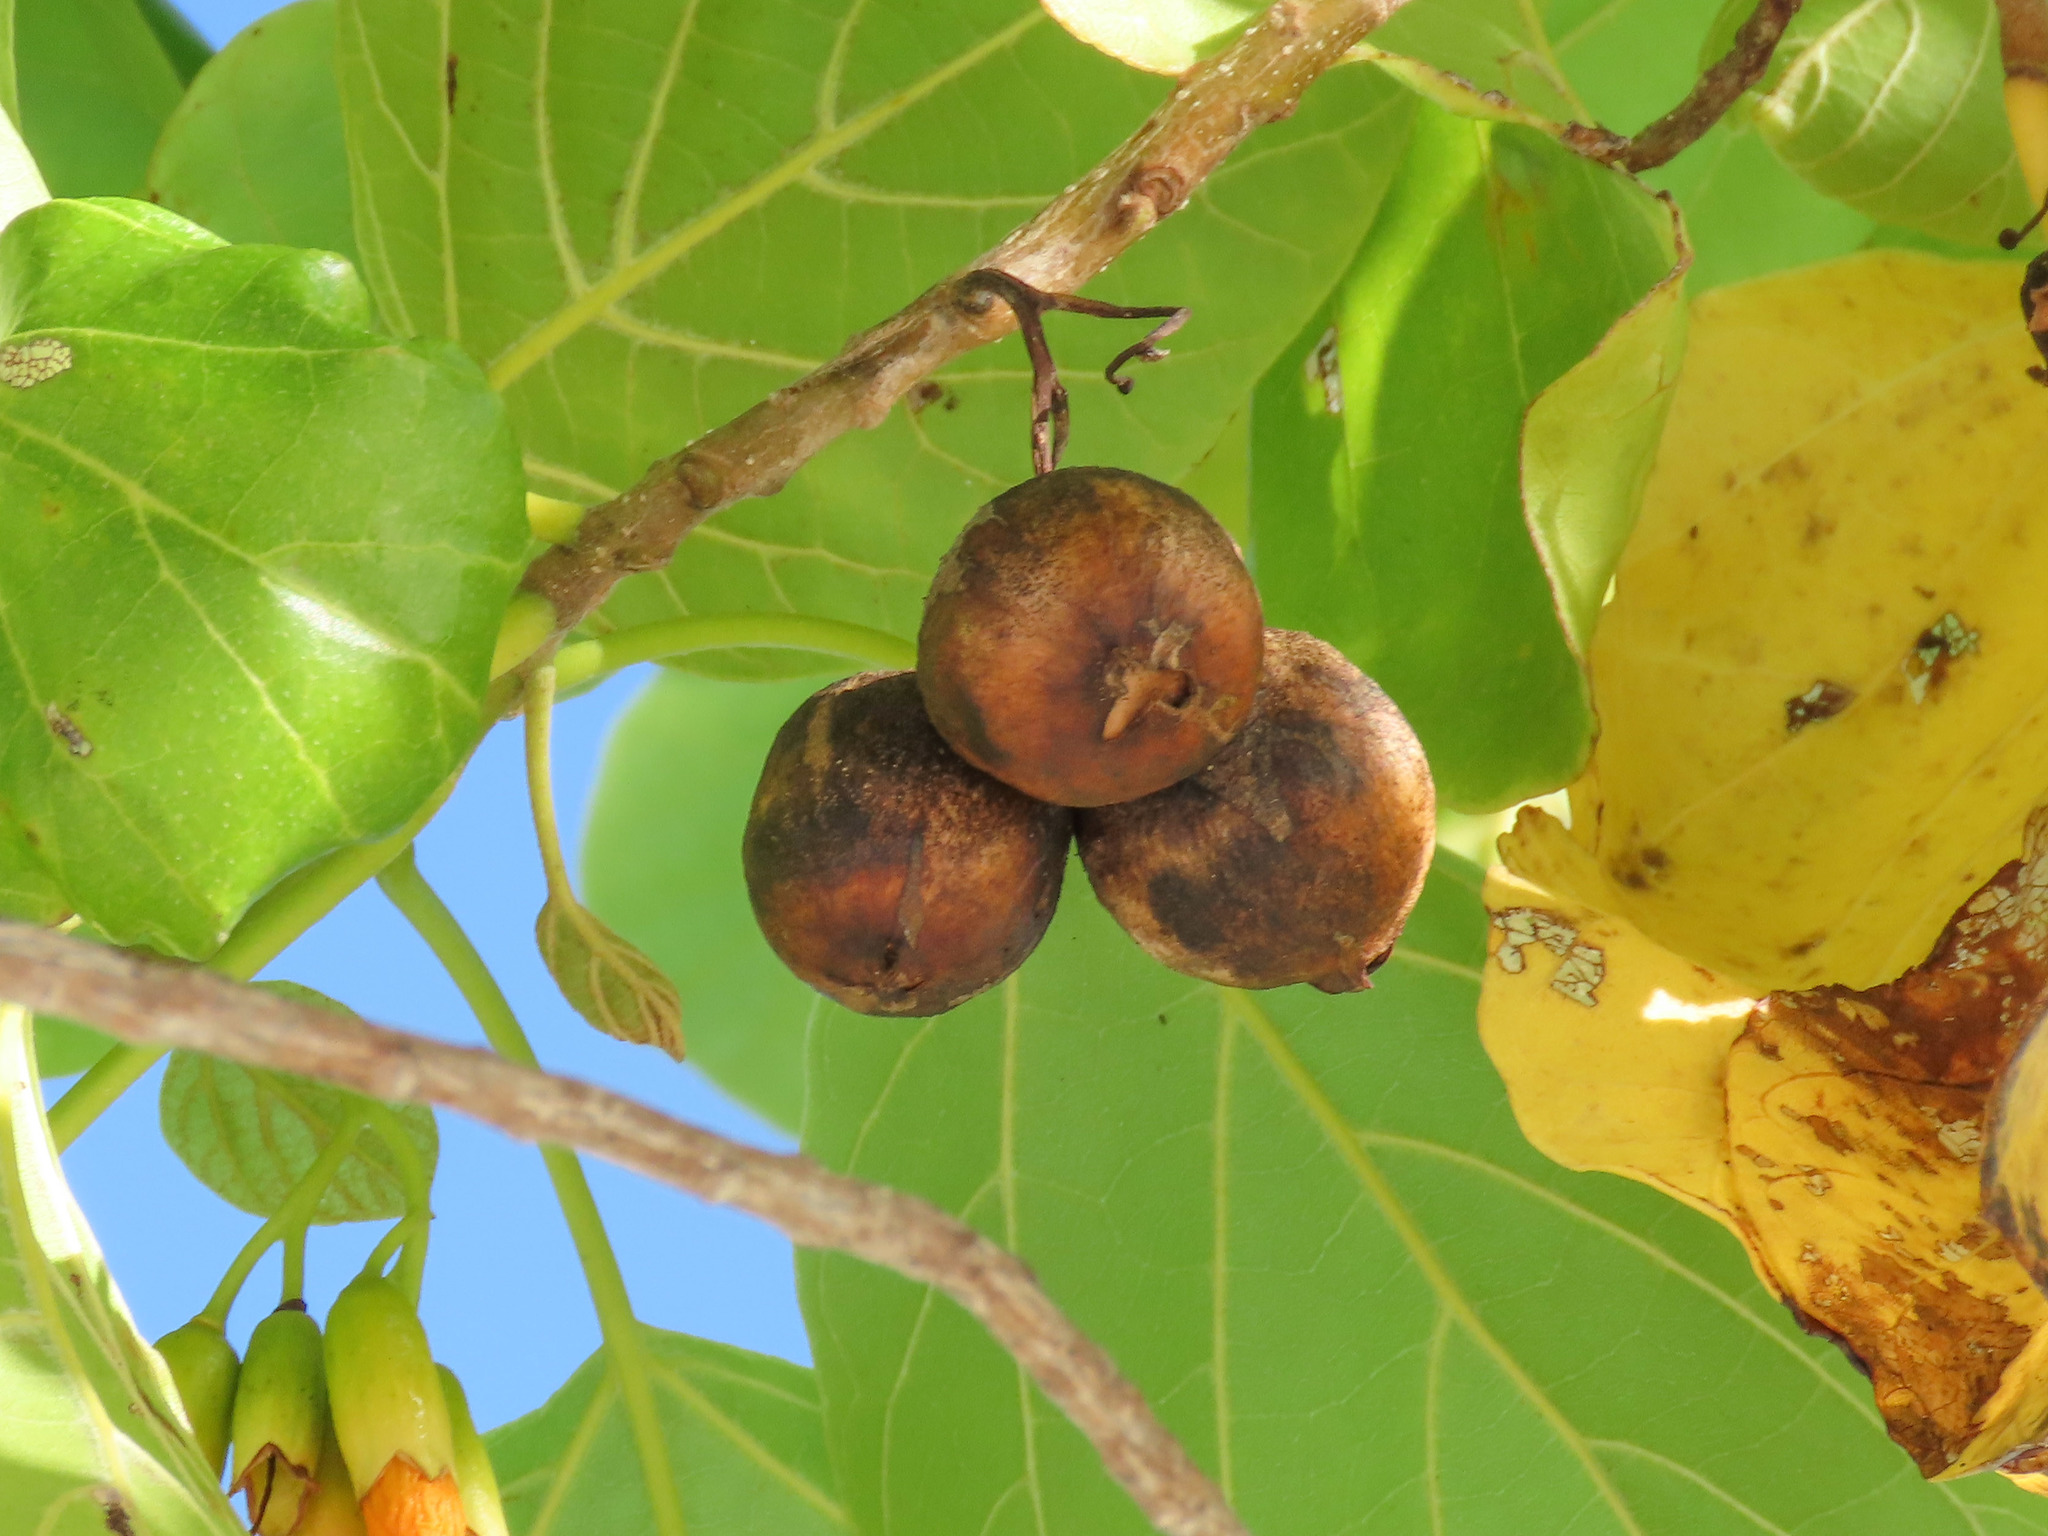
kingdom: Plantae
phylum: Tracheophyta
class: Magnoliopsida
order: Boraginales
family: Cordiaceae
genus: Cordia
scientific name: Cordia subcordata
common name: Mareer
